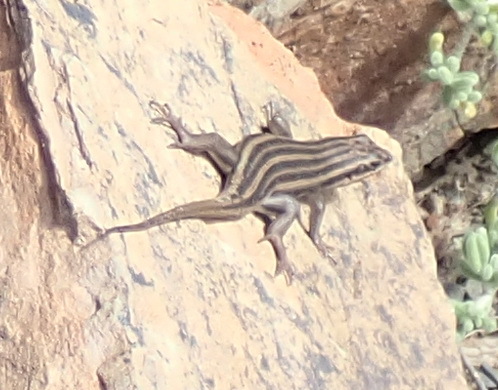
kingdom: Animalia
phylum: Chordata
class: Squamata
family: Scincidae
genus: Trachylepis
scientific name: Trachylepis sulcata
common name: Western rock skink
